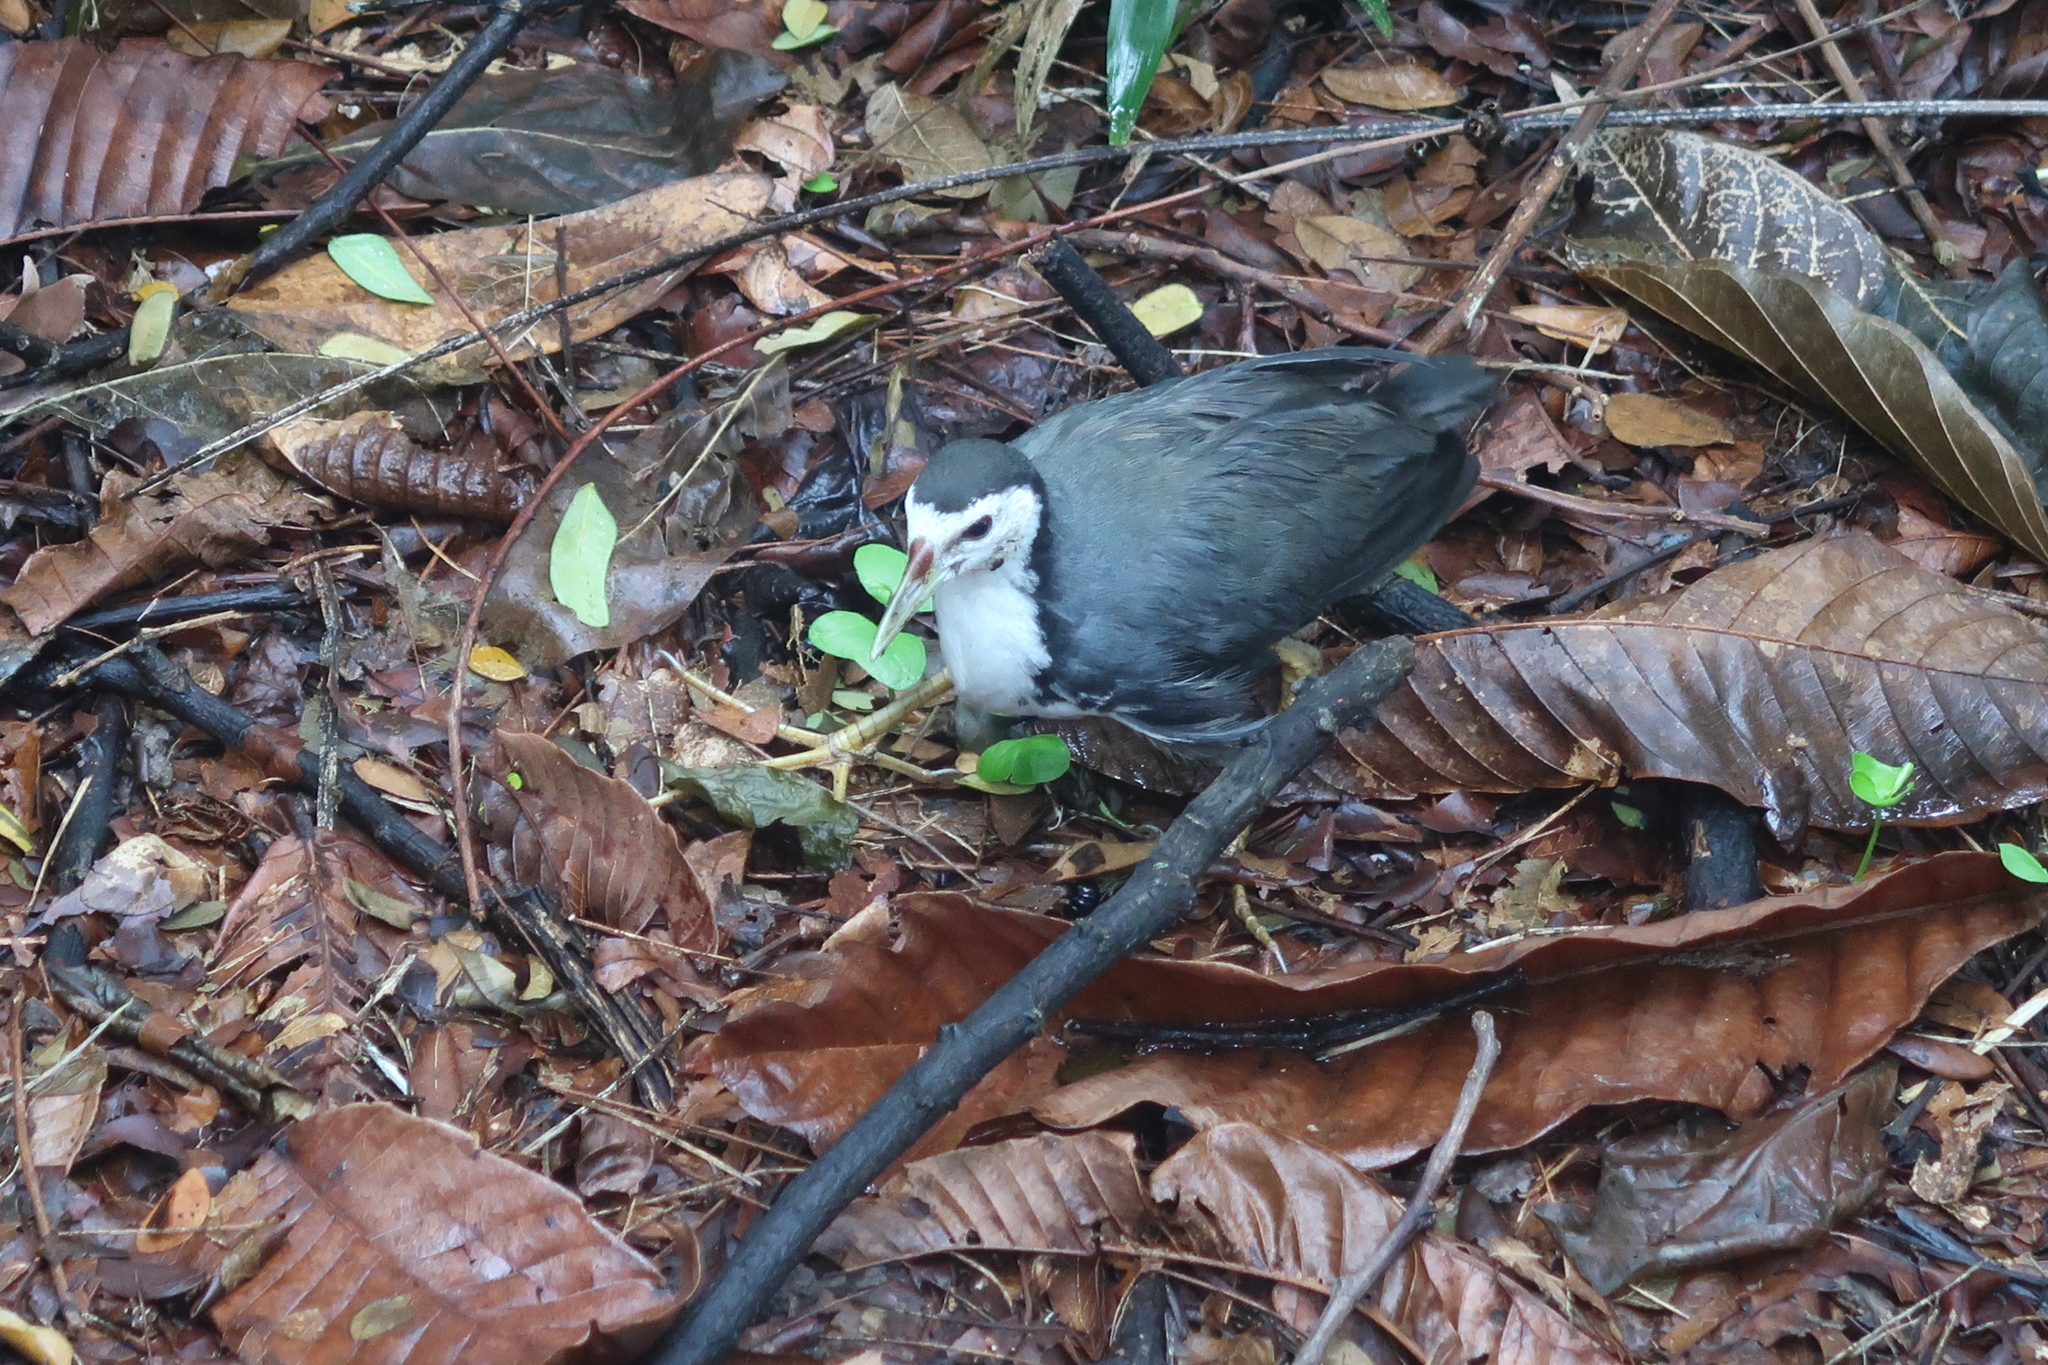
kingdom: Animalia
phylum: Chordata
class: Aves
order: Gruiformes
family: Rallidae
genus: Amaurornis
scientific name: Amaurornis phoenicurus
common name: White-breasted waterhen
